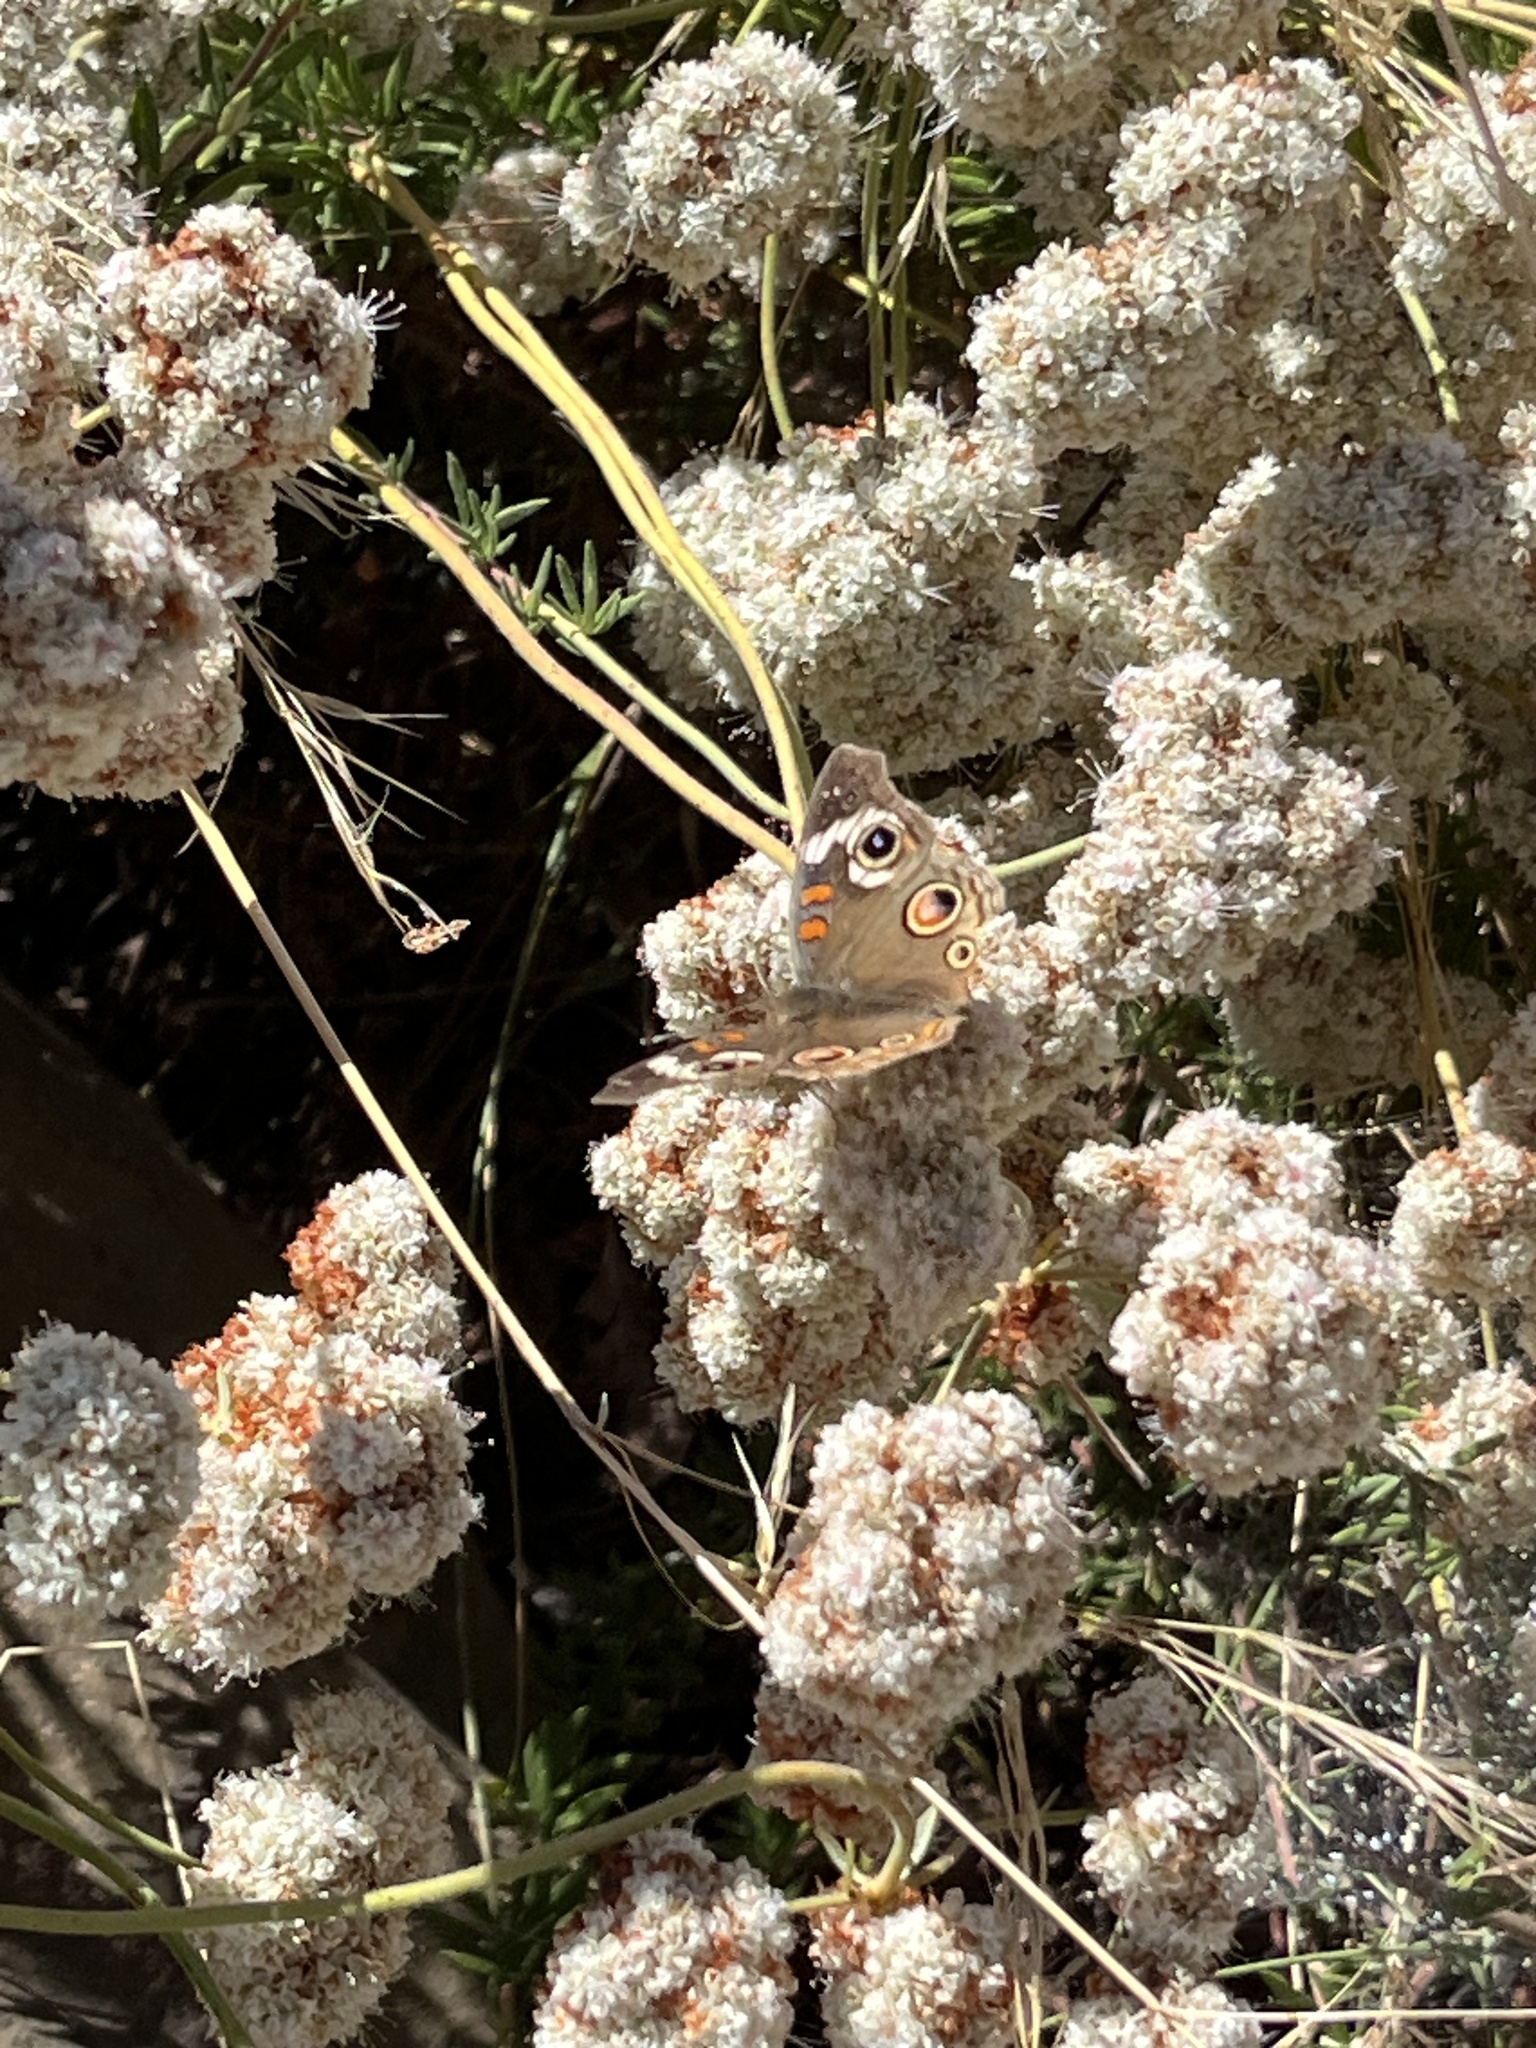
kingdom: Animalia
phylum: Arthropoda
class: Insecta
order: Lepidoptera
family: Nymphalidae
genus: Junonia
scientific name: Junonia grisea
